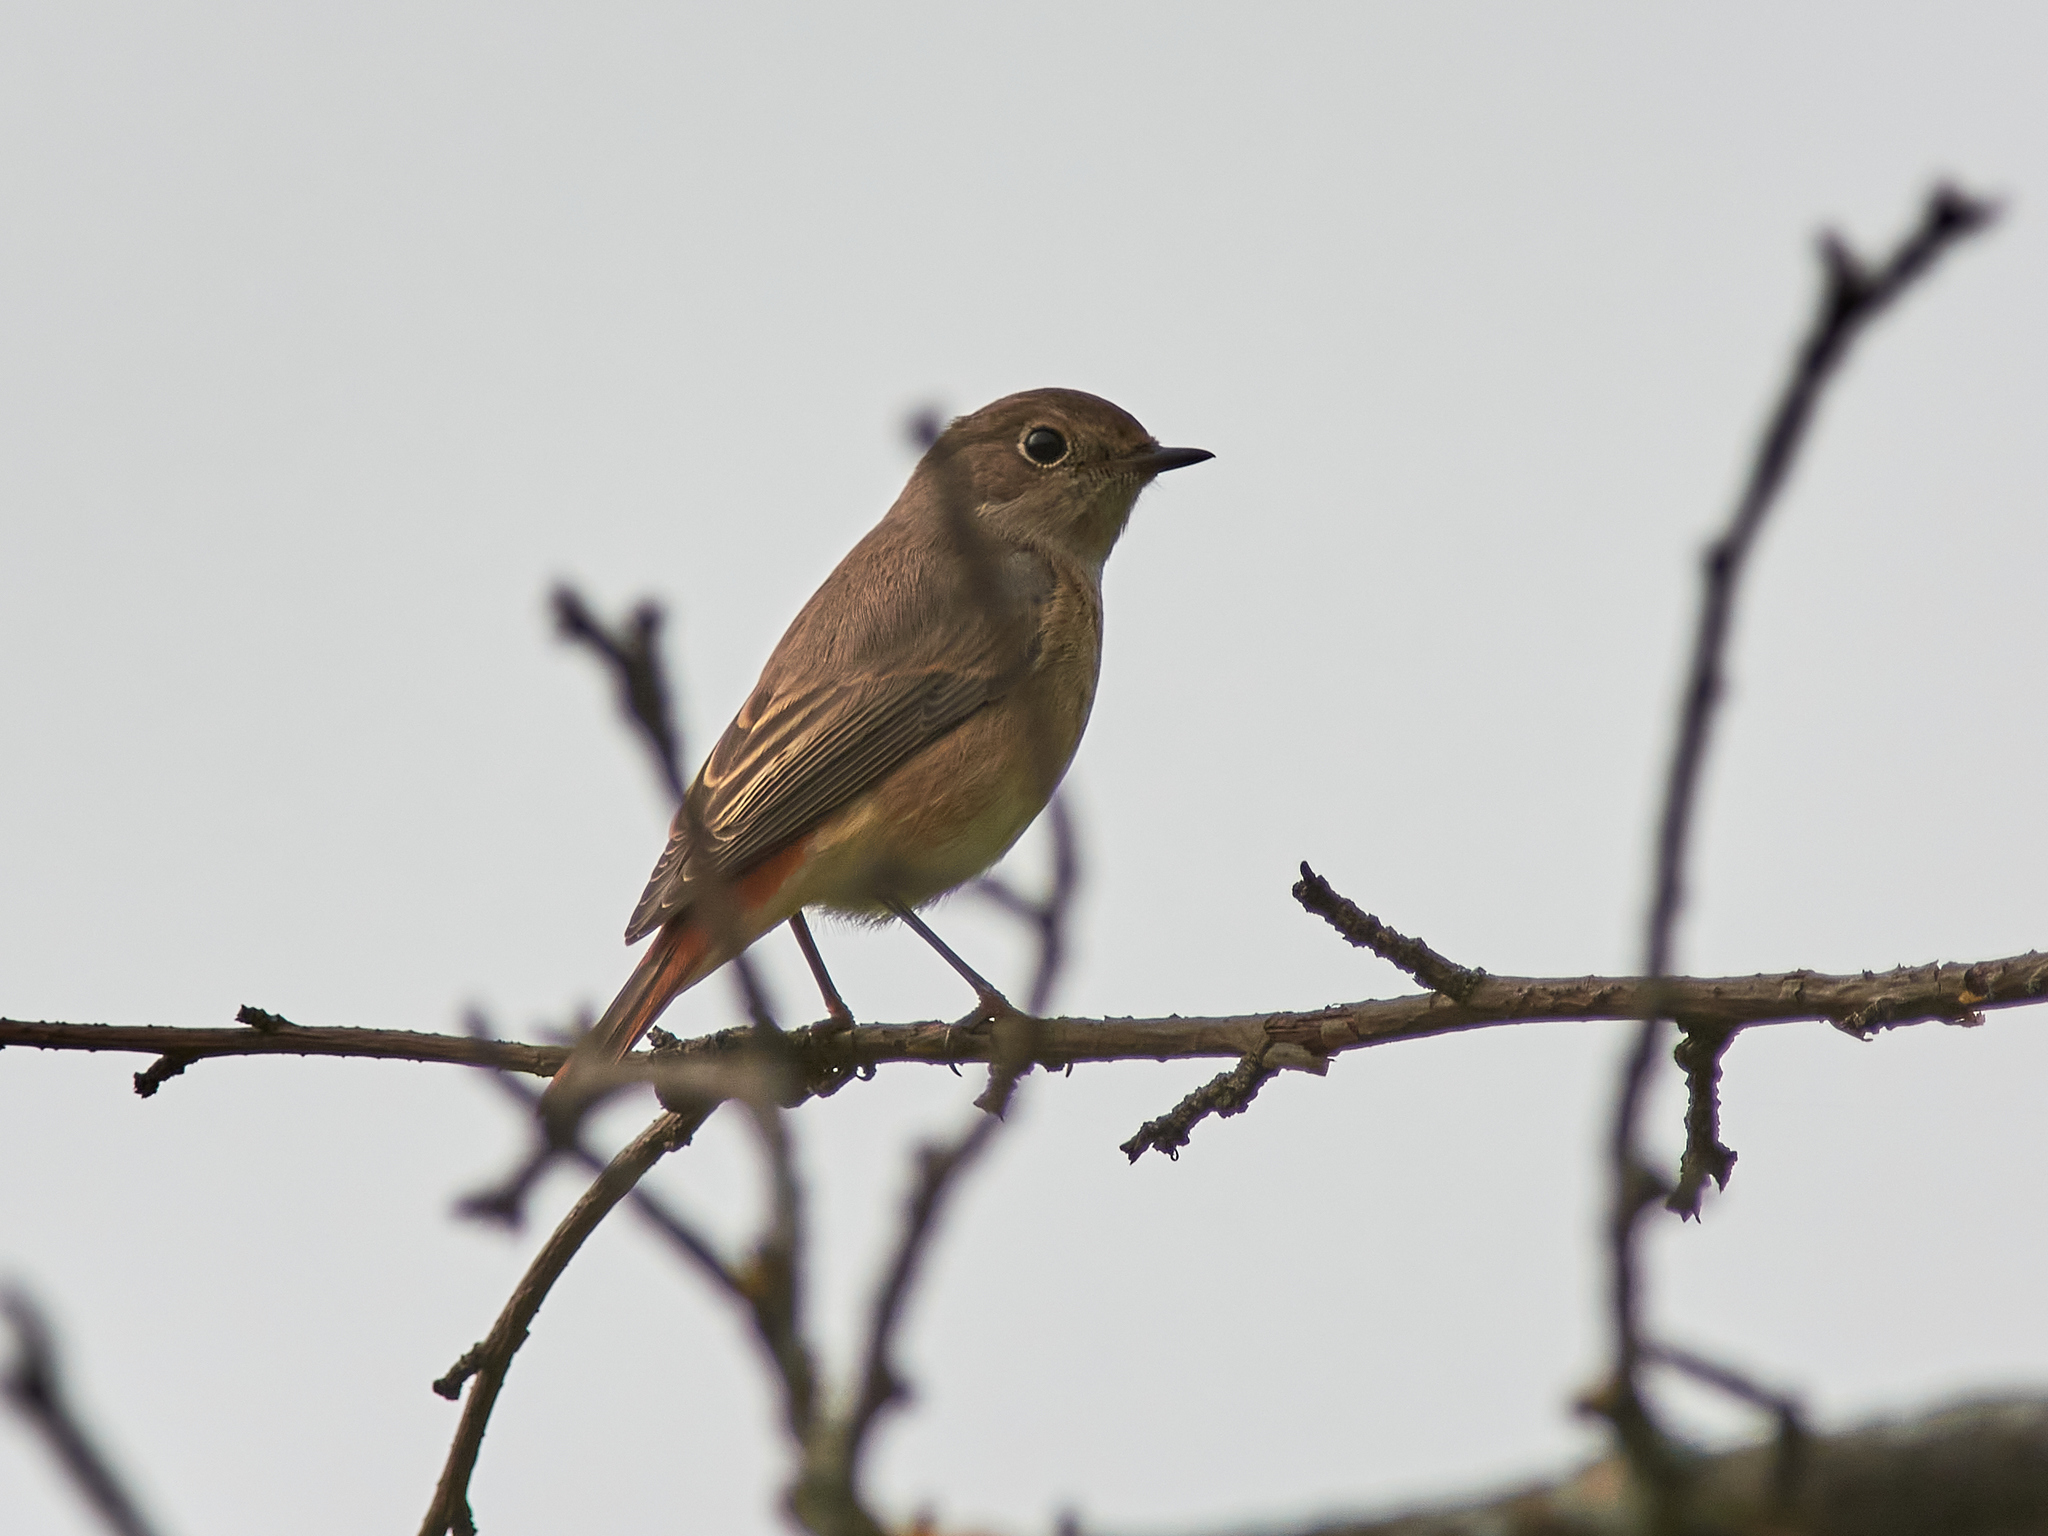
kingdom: Animalia
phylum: Chordata
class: Aves
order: Passeriformes
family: Muscicapidae
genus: Phoenicurus
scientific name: Phoenicurus phoenicurus
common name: Common redstart
